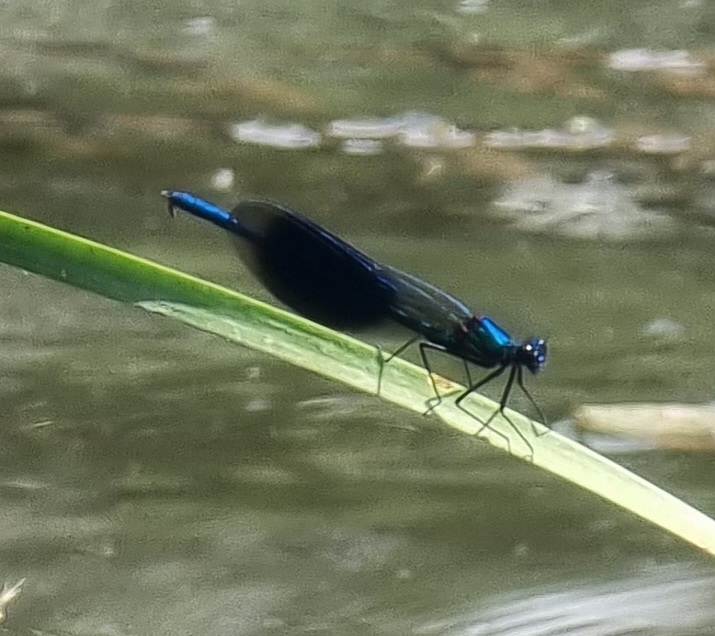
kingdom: Animalia
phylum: Arthropoda
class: Insecta
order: Odonata
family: Calopterygidae
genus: Calopteryx
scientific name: Calopteryx splendens
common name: Banded demoiselle
